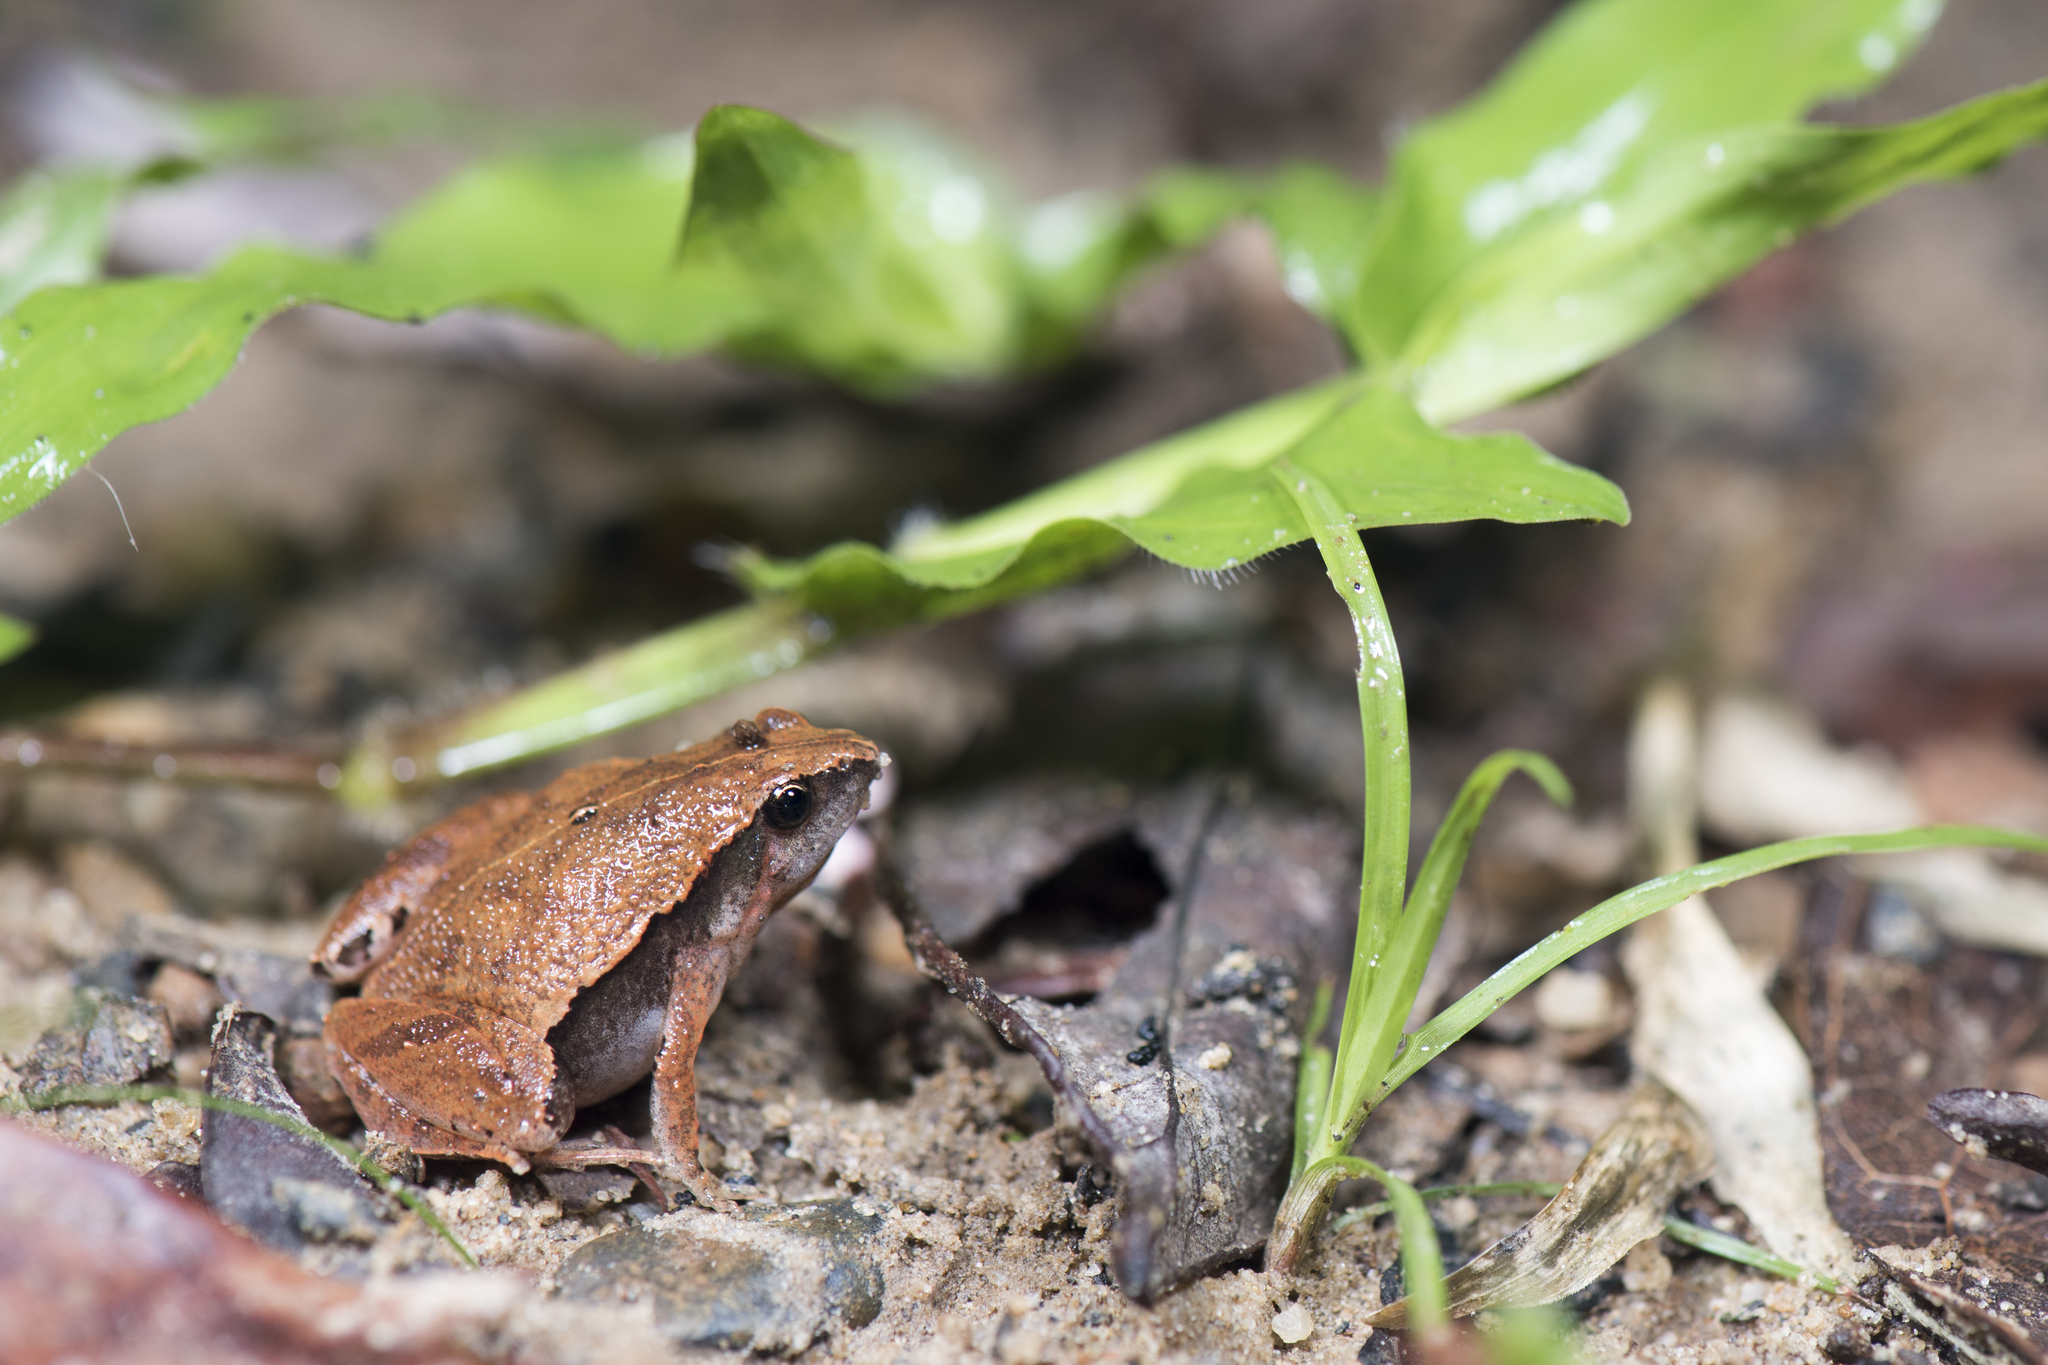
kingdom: Animalia
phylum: Chordata
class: Amphibia
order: Anura
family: Microhylidae
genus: Microhyla
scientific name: Microhyla heymonsi
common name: Taiwan rice frog,dark sided chorus frog
